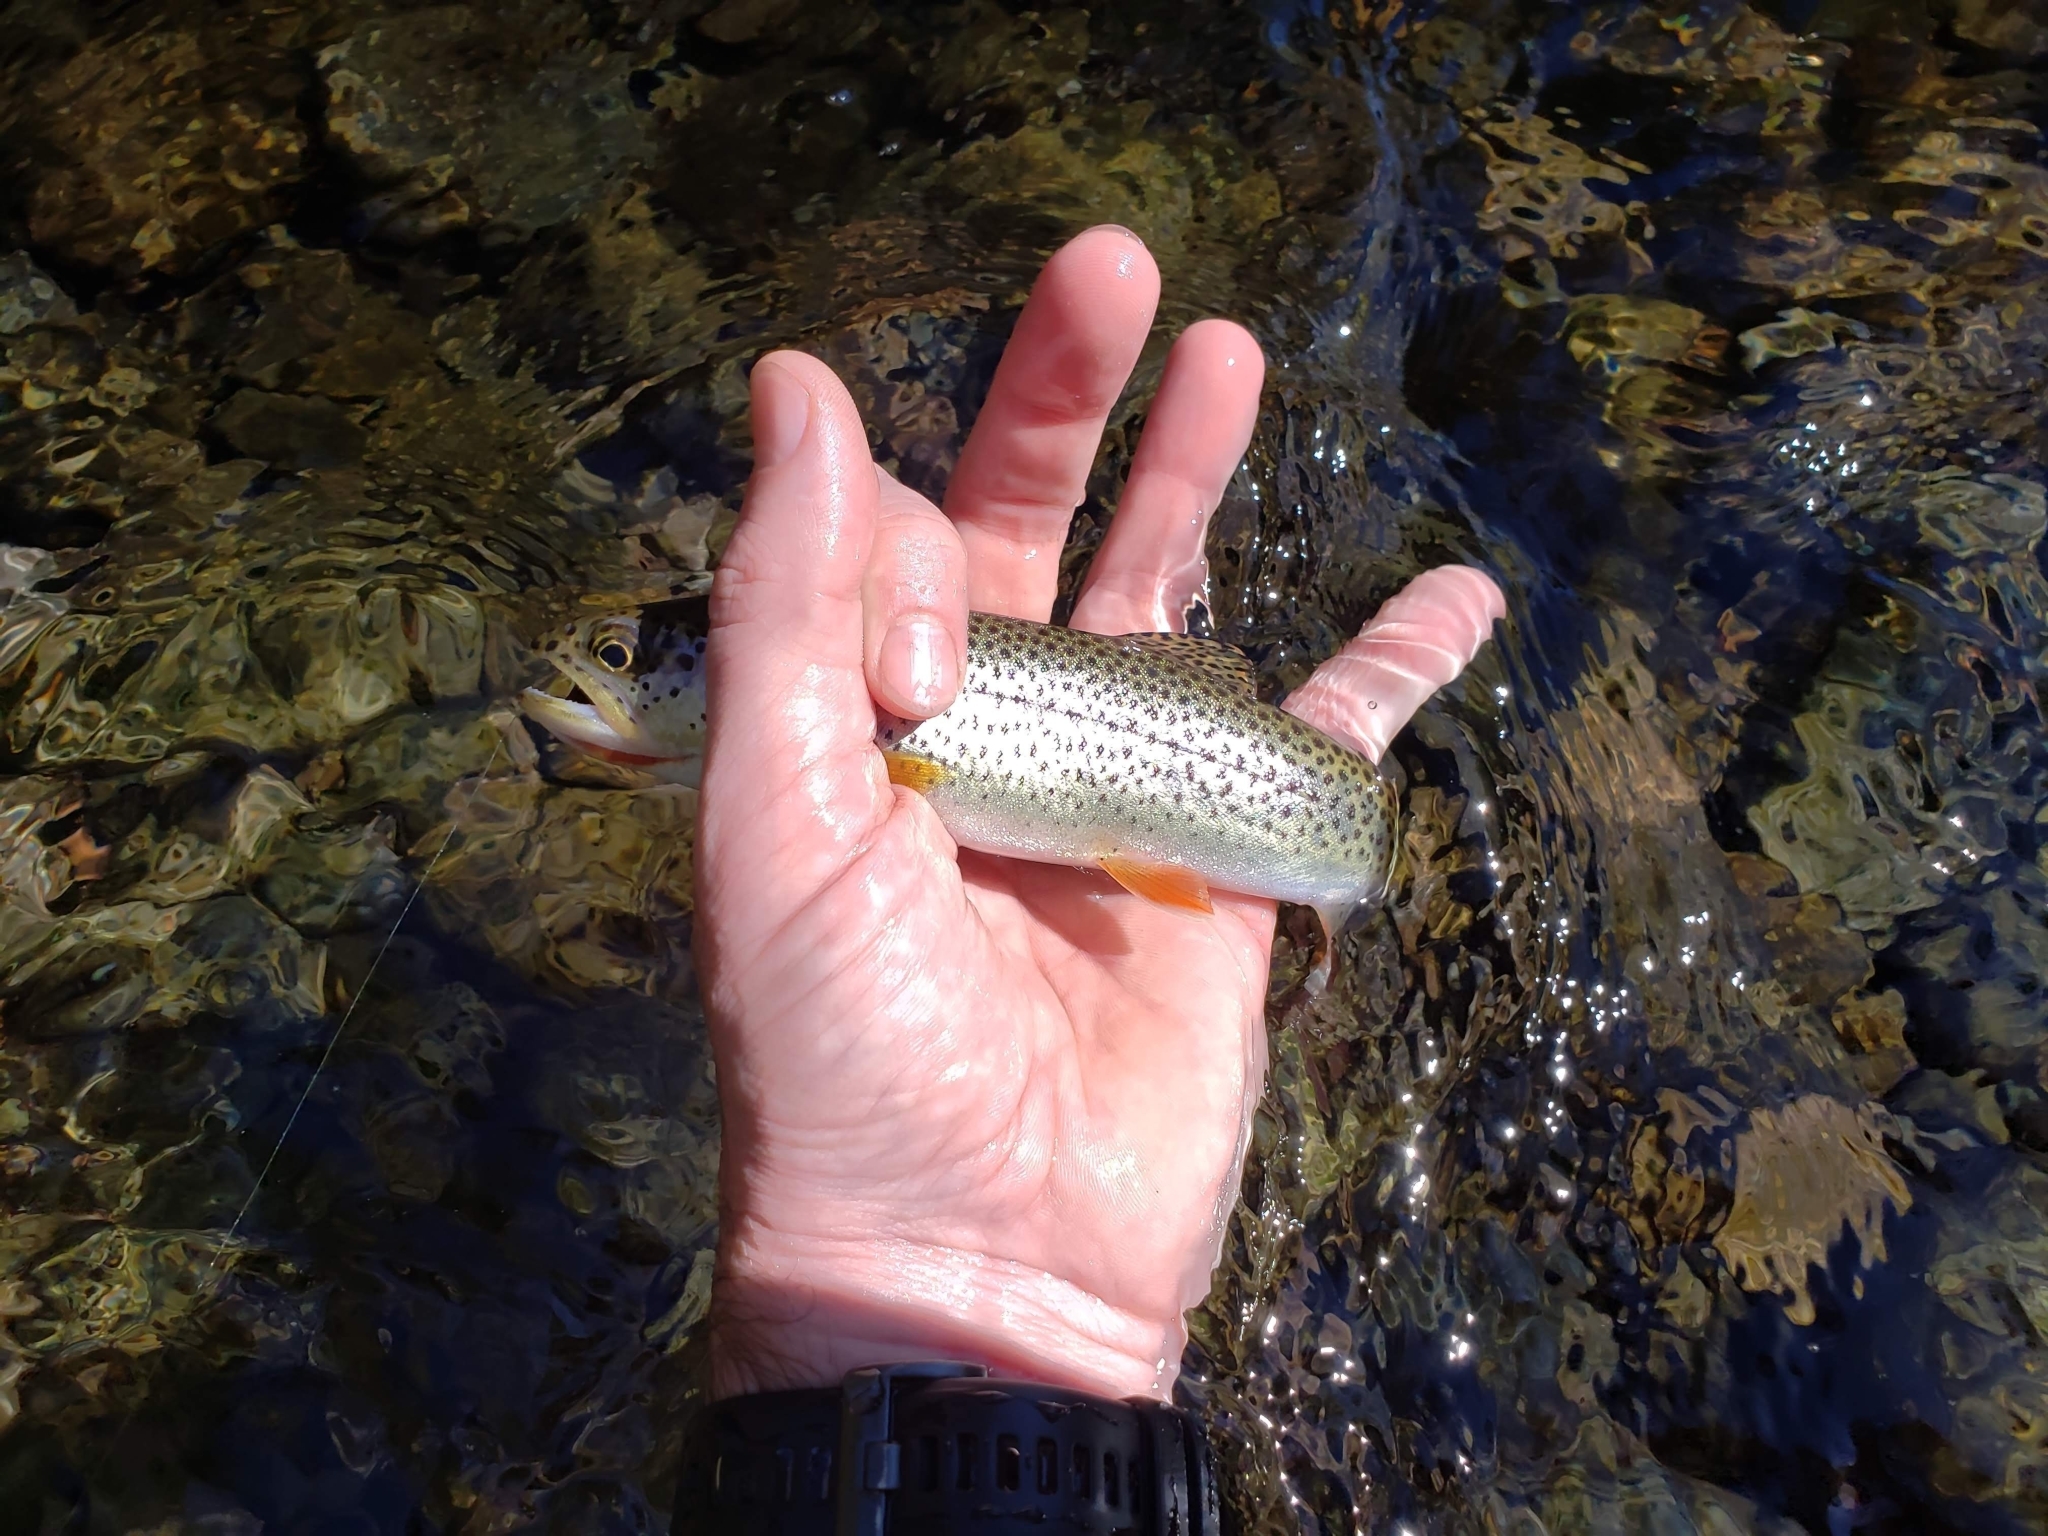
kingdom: Animalia
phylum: Chordata
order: Salmoniformes
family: Salmonidae
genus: Oncorhynchus
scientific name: Oncorhynchus clarkii
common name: Cutthroat trout
